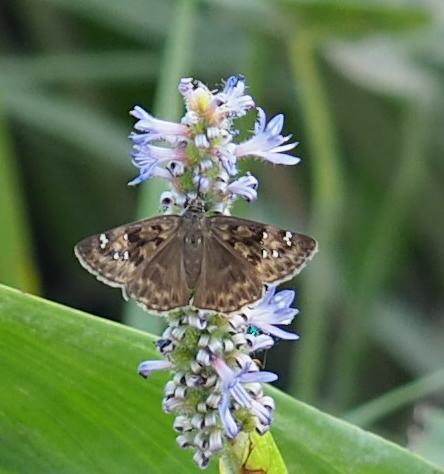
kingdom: Animalia
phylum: Arthropoda
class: Insecta
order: Lepidoptera
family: Hesperiidae
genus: Erynnis
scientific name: Erynnis horatius
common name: Horace's duskywing
